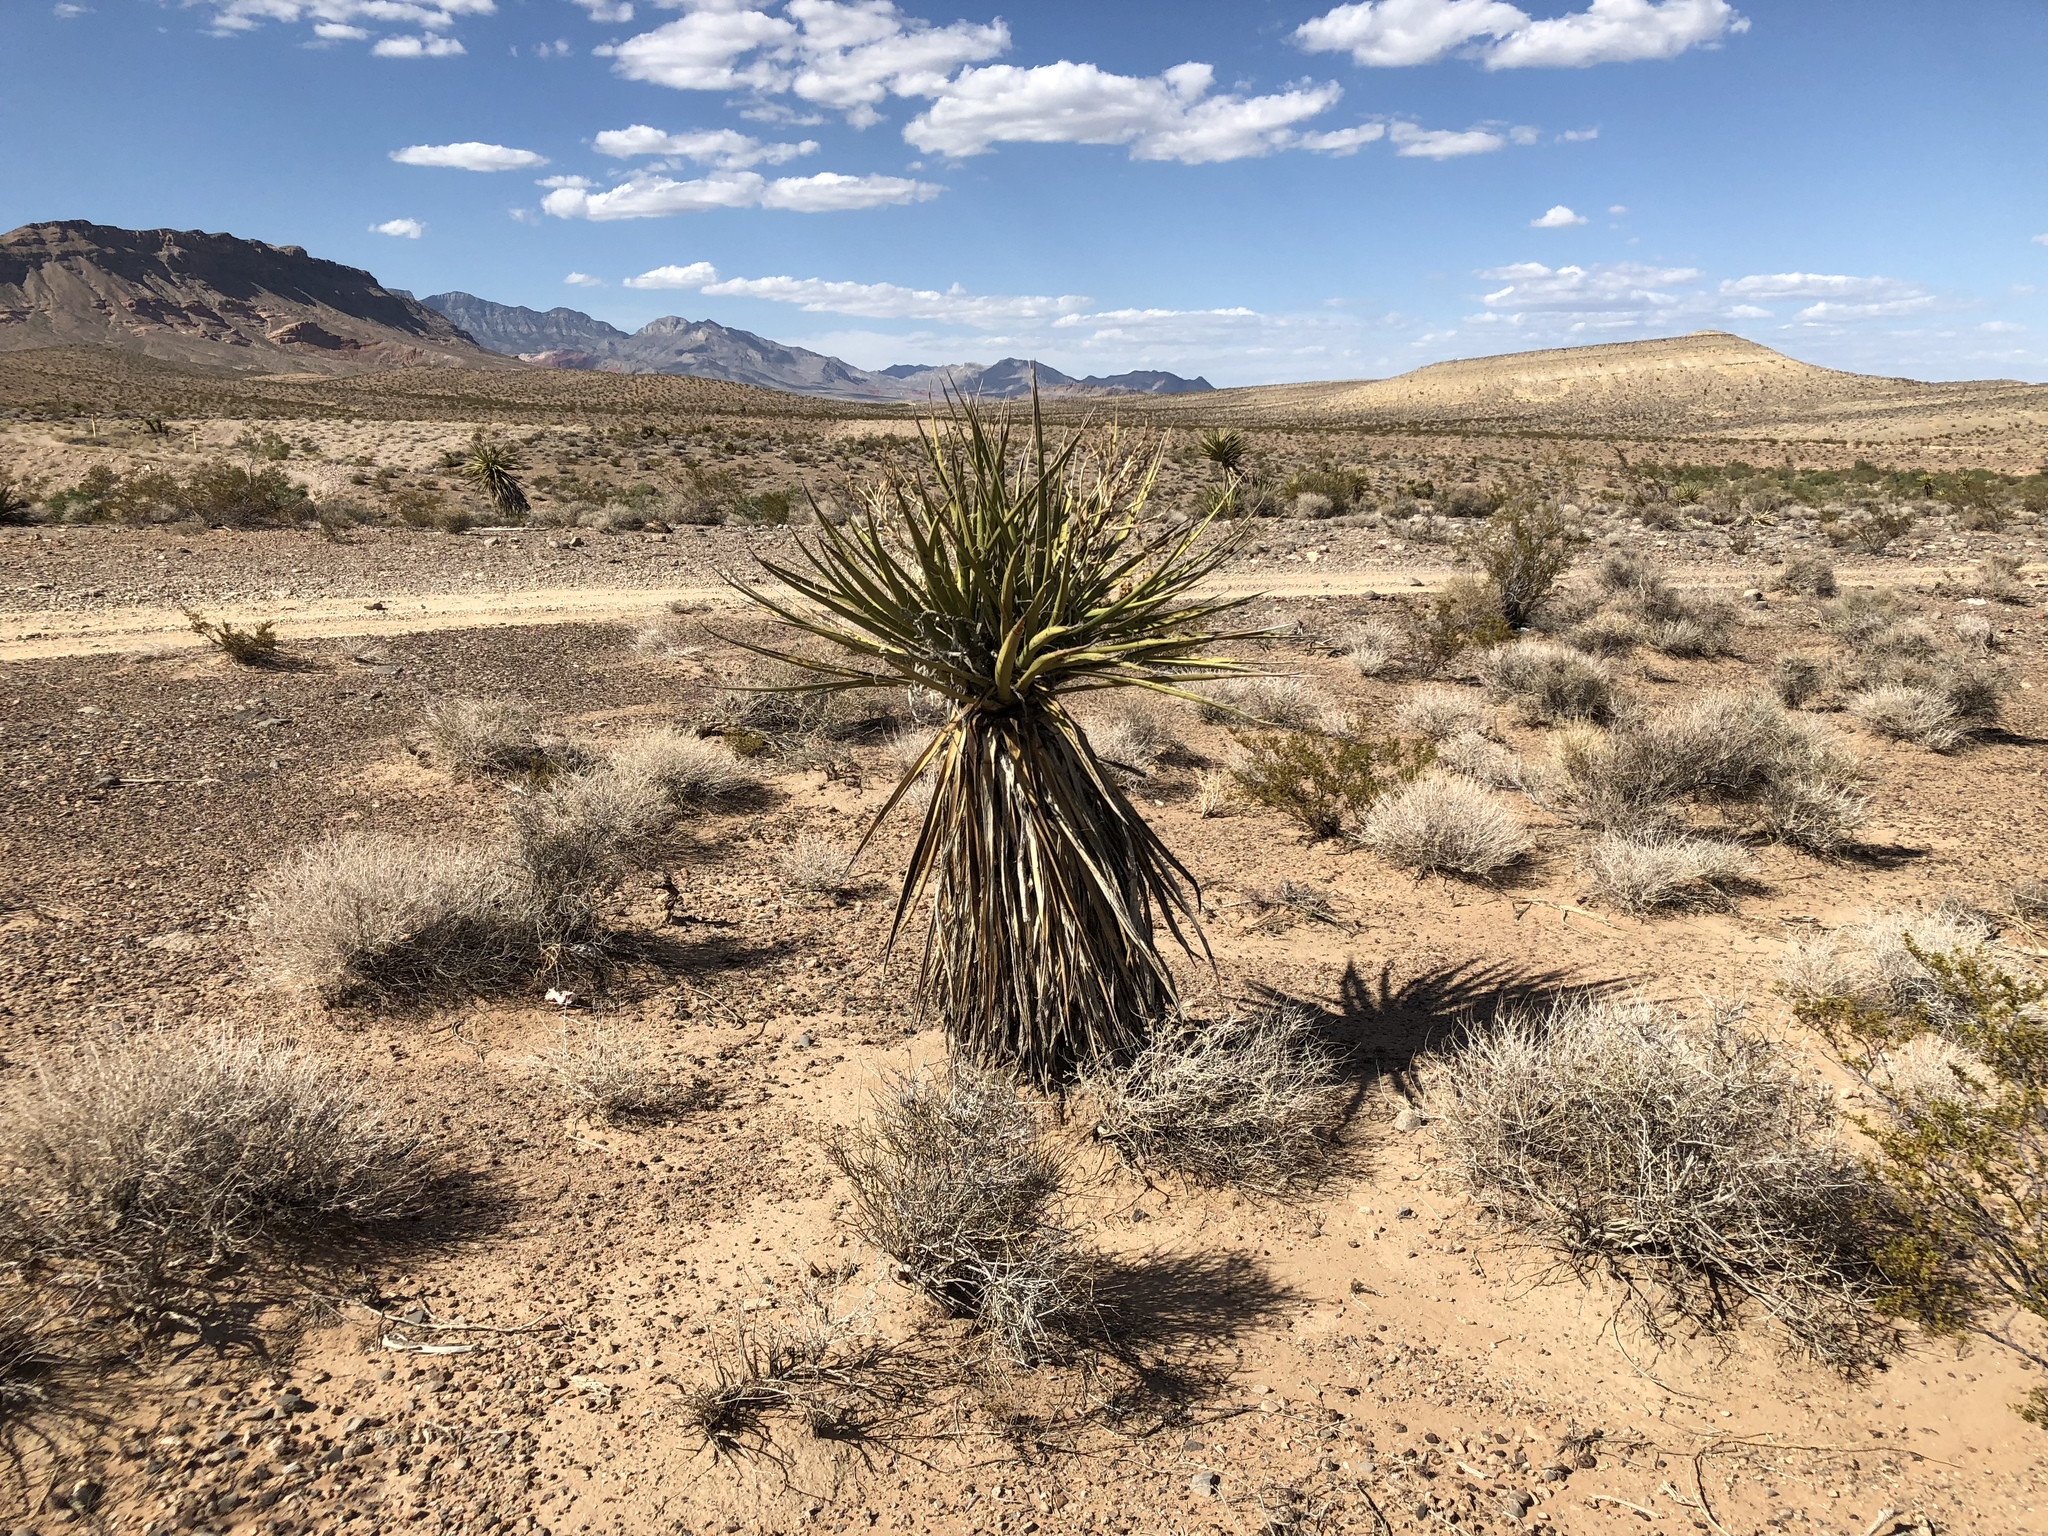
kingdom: Plantae
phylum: Tracheophyta
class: Liliopsida
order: Asparagales
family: Asparagaceae
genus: Yucca
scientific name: Yucca schidigera
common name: Mojave yucca
